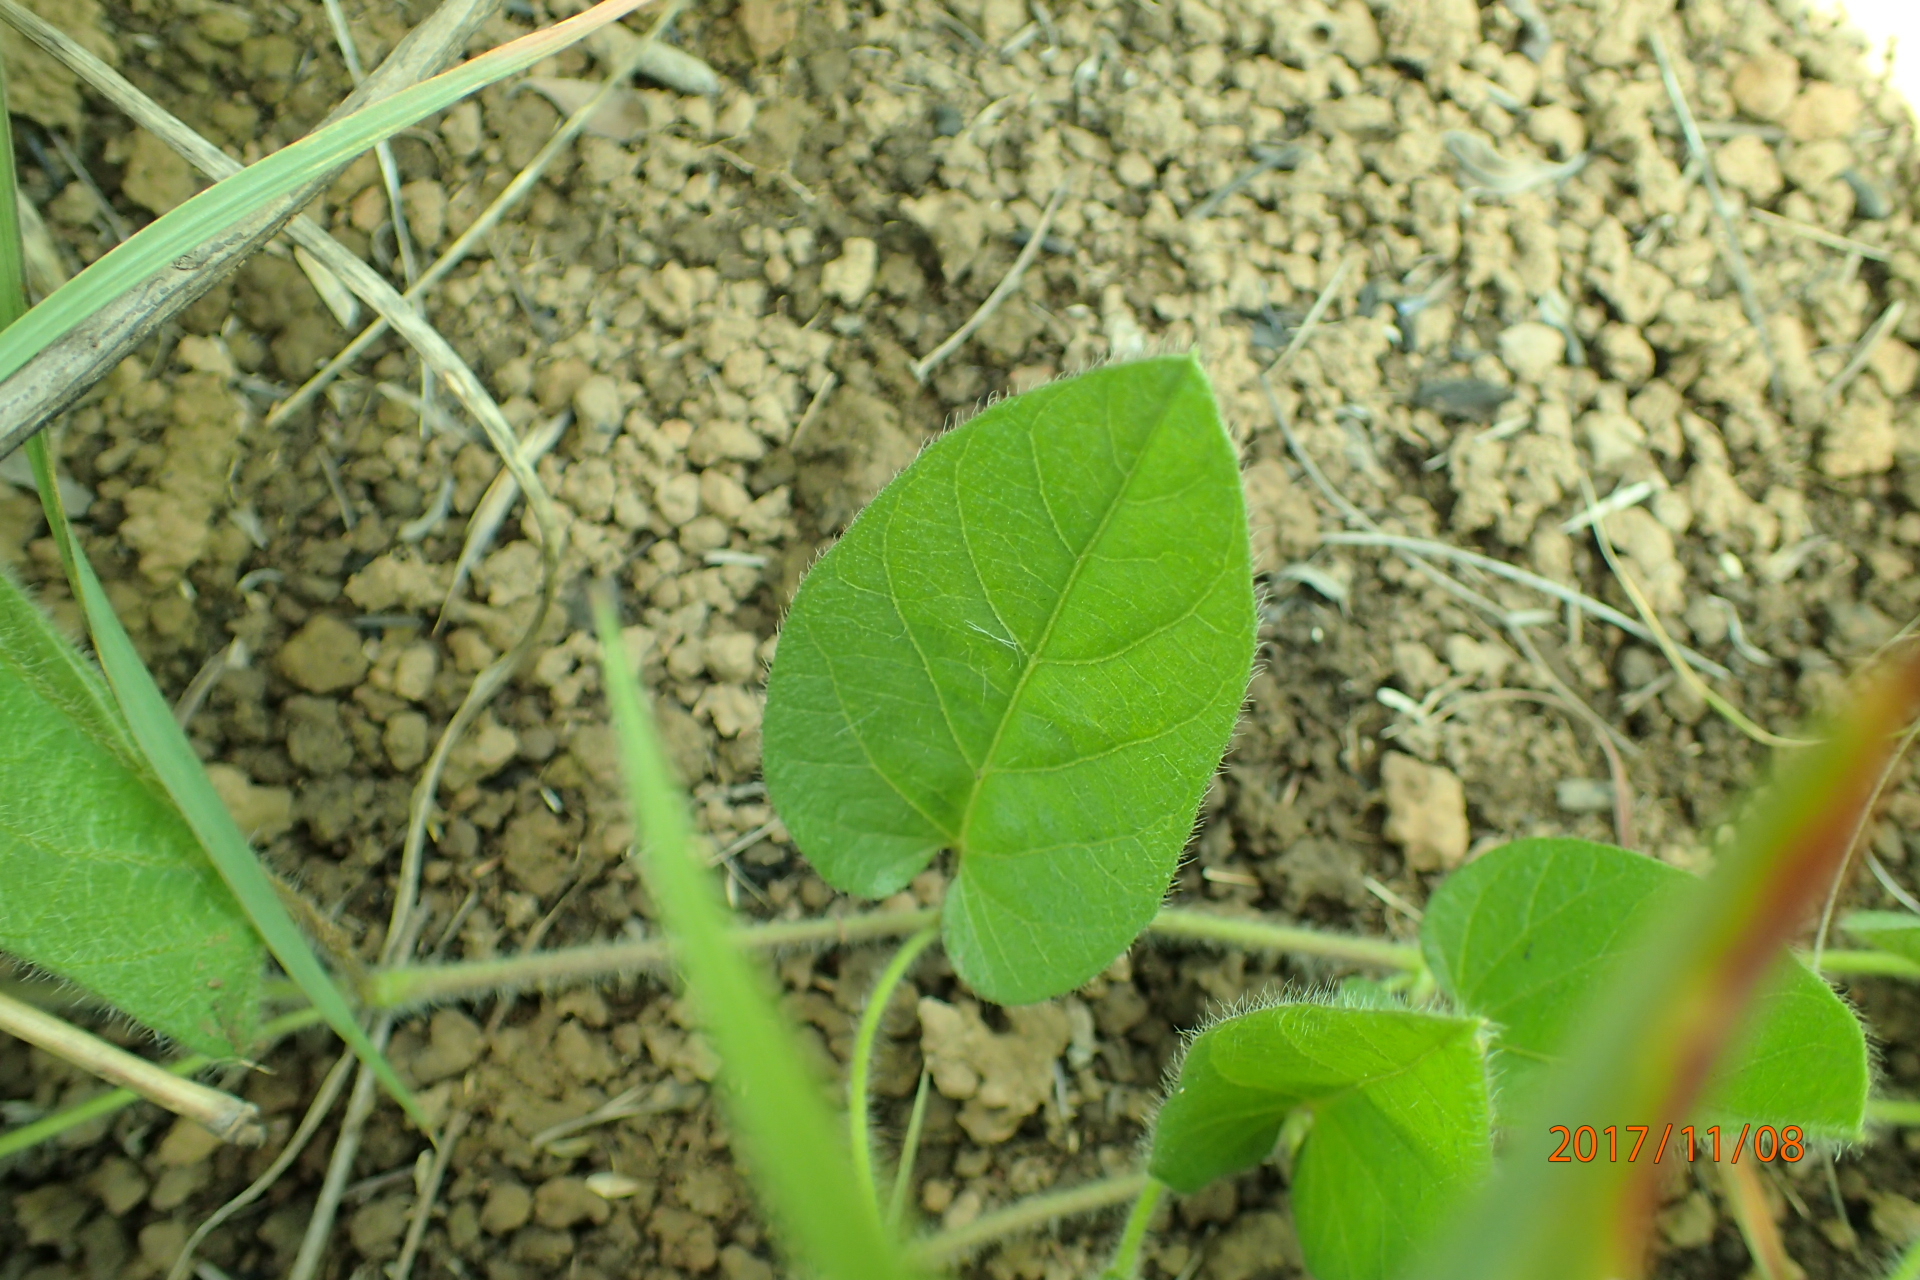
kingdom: Plantae
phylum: Tracheophyta
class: Magnoliopsida
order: Solanales
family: Convolvulaceae
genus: Ipomoea
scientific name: Ipomoea crassipes
